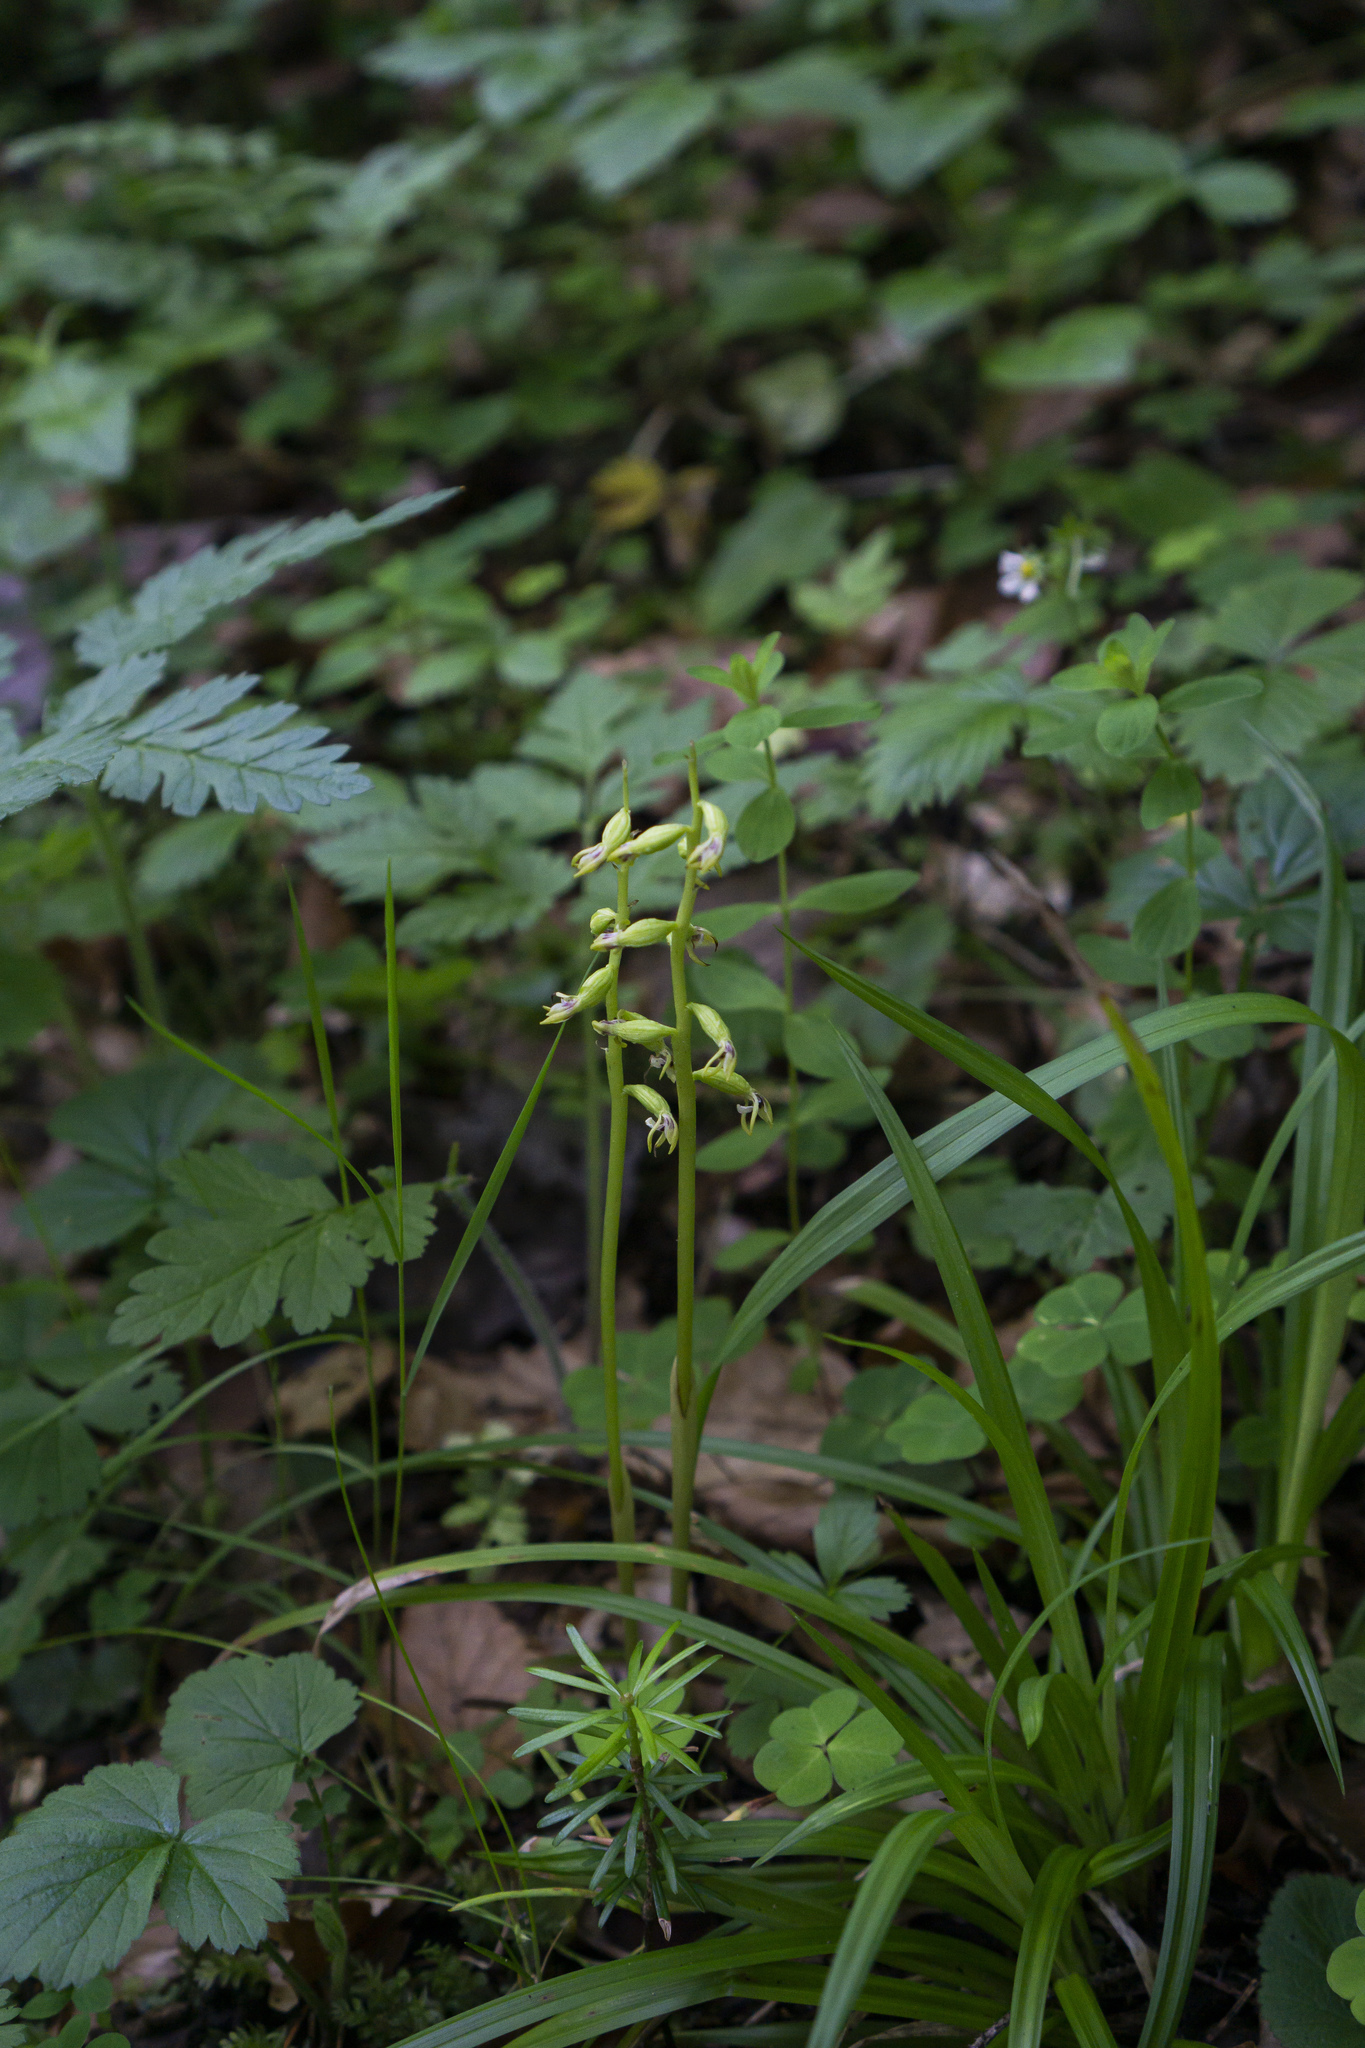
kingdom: Plantae
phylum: Tracheophyta
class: Liliopsida
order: Asparagales
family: Orchidaceae
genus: Corallorhiza
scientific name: Corallorhiza trifida
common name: Yellow coralroot
